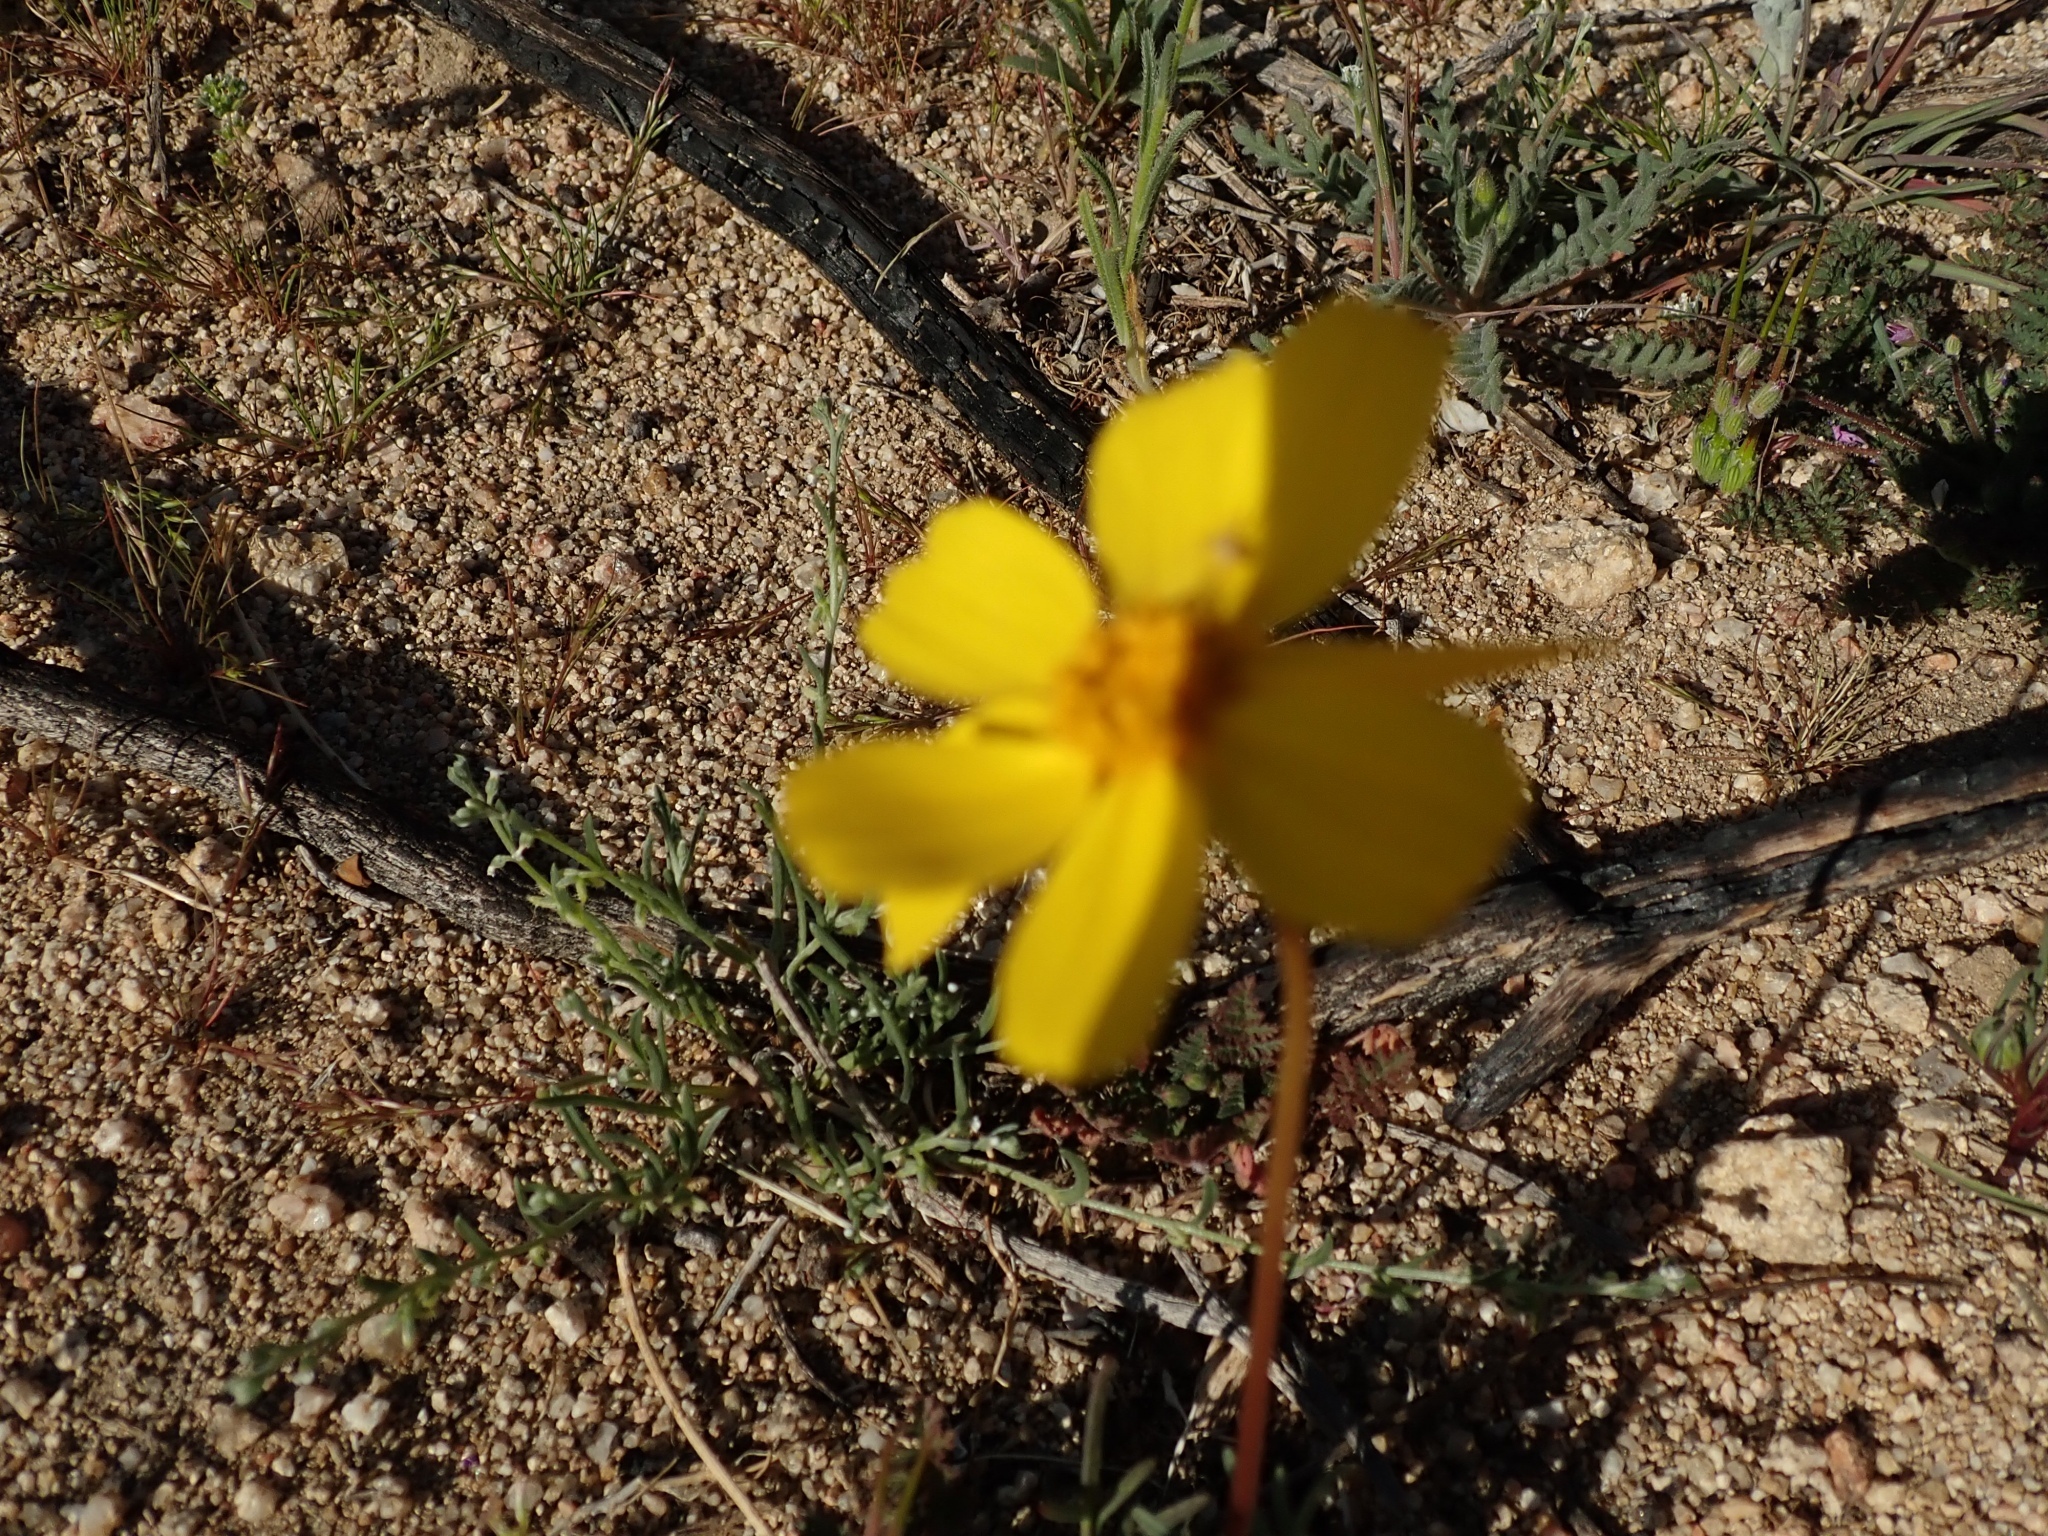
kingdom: Plantae
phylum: Tracheophyta
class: Magnoliopsida
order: Asterales
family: Asteraceae
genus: Coreopsis
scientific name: Coreopsis bigelovii
